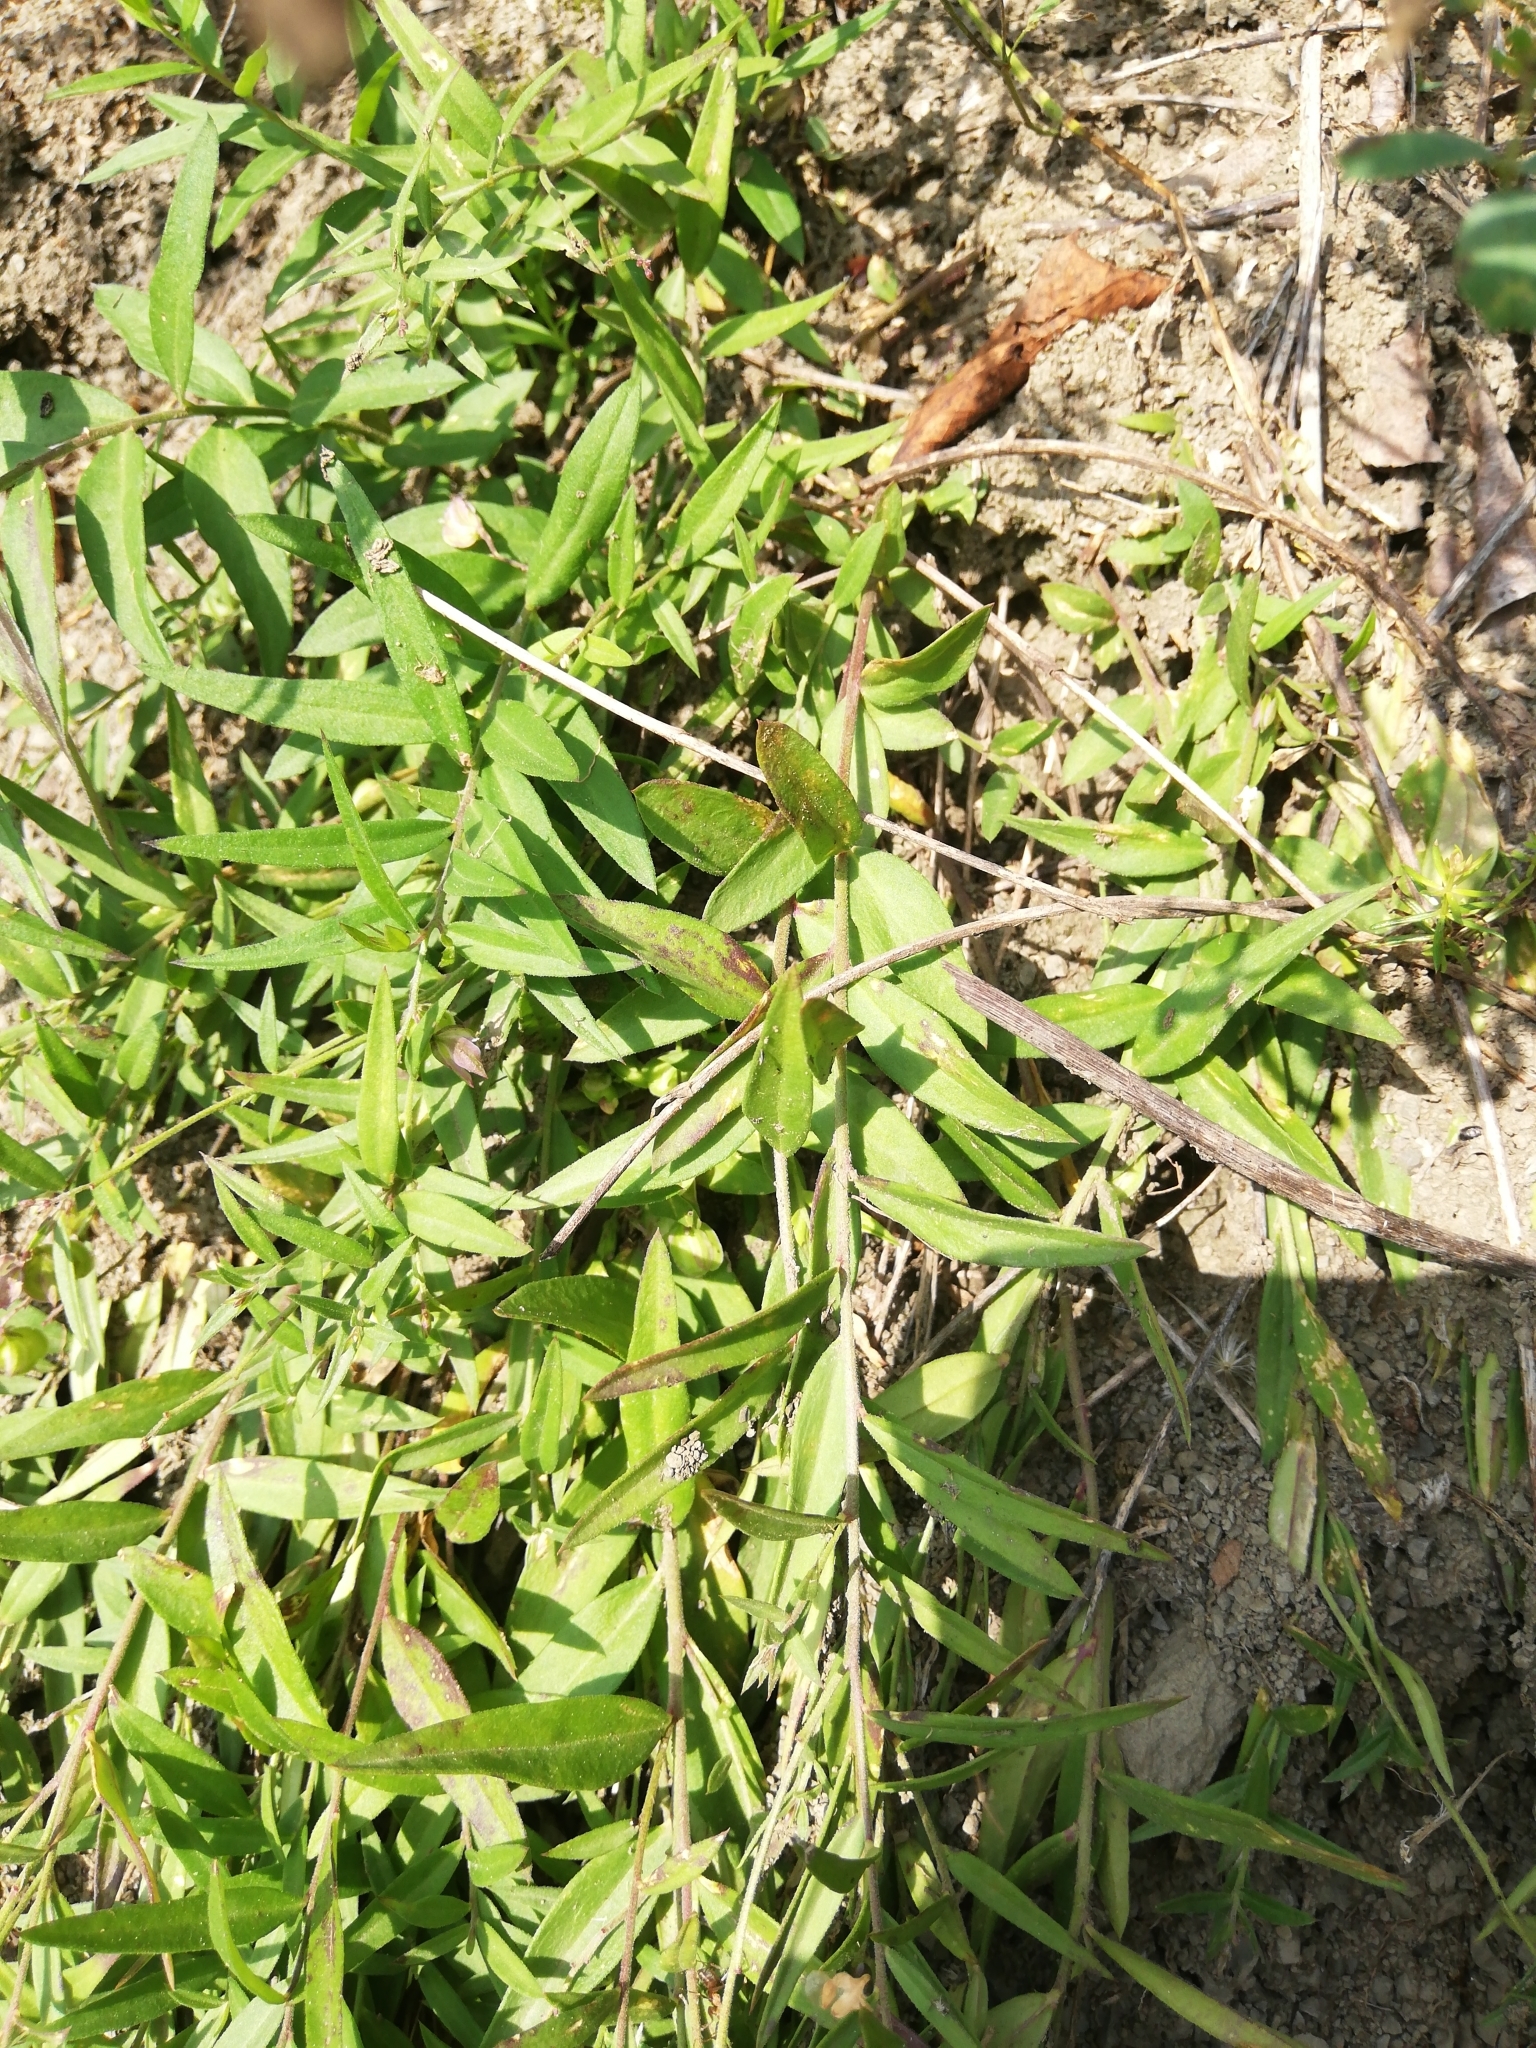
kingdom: Plantae
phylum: Tracheophyta
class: Magnoliopsida
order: Fabales
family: Polygalaceae
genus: Polygala
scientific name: Polygala sibirica
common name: Siberian polygala
